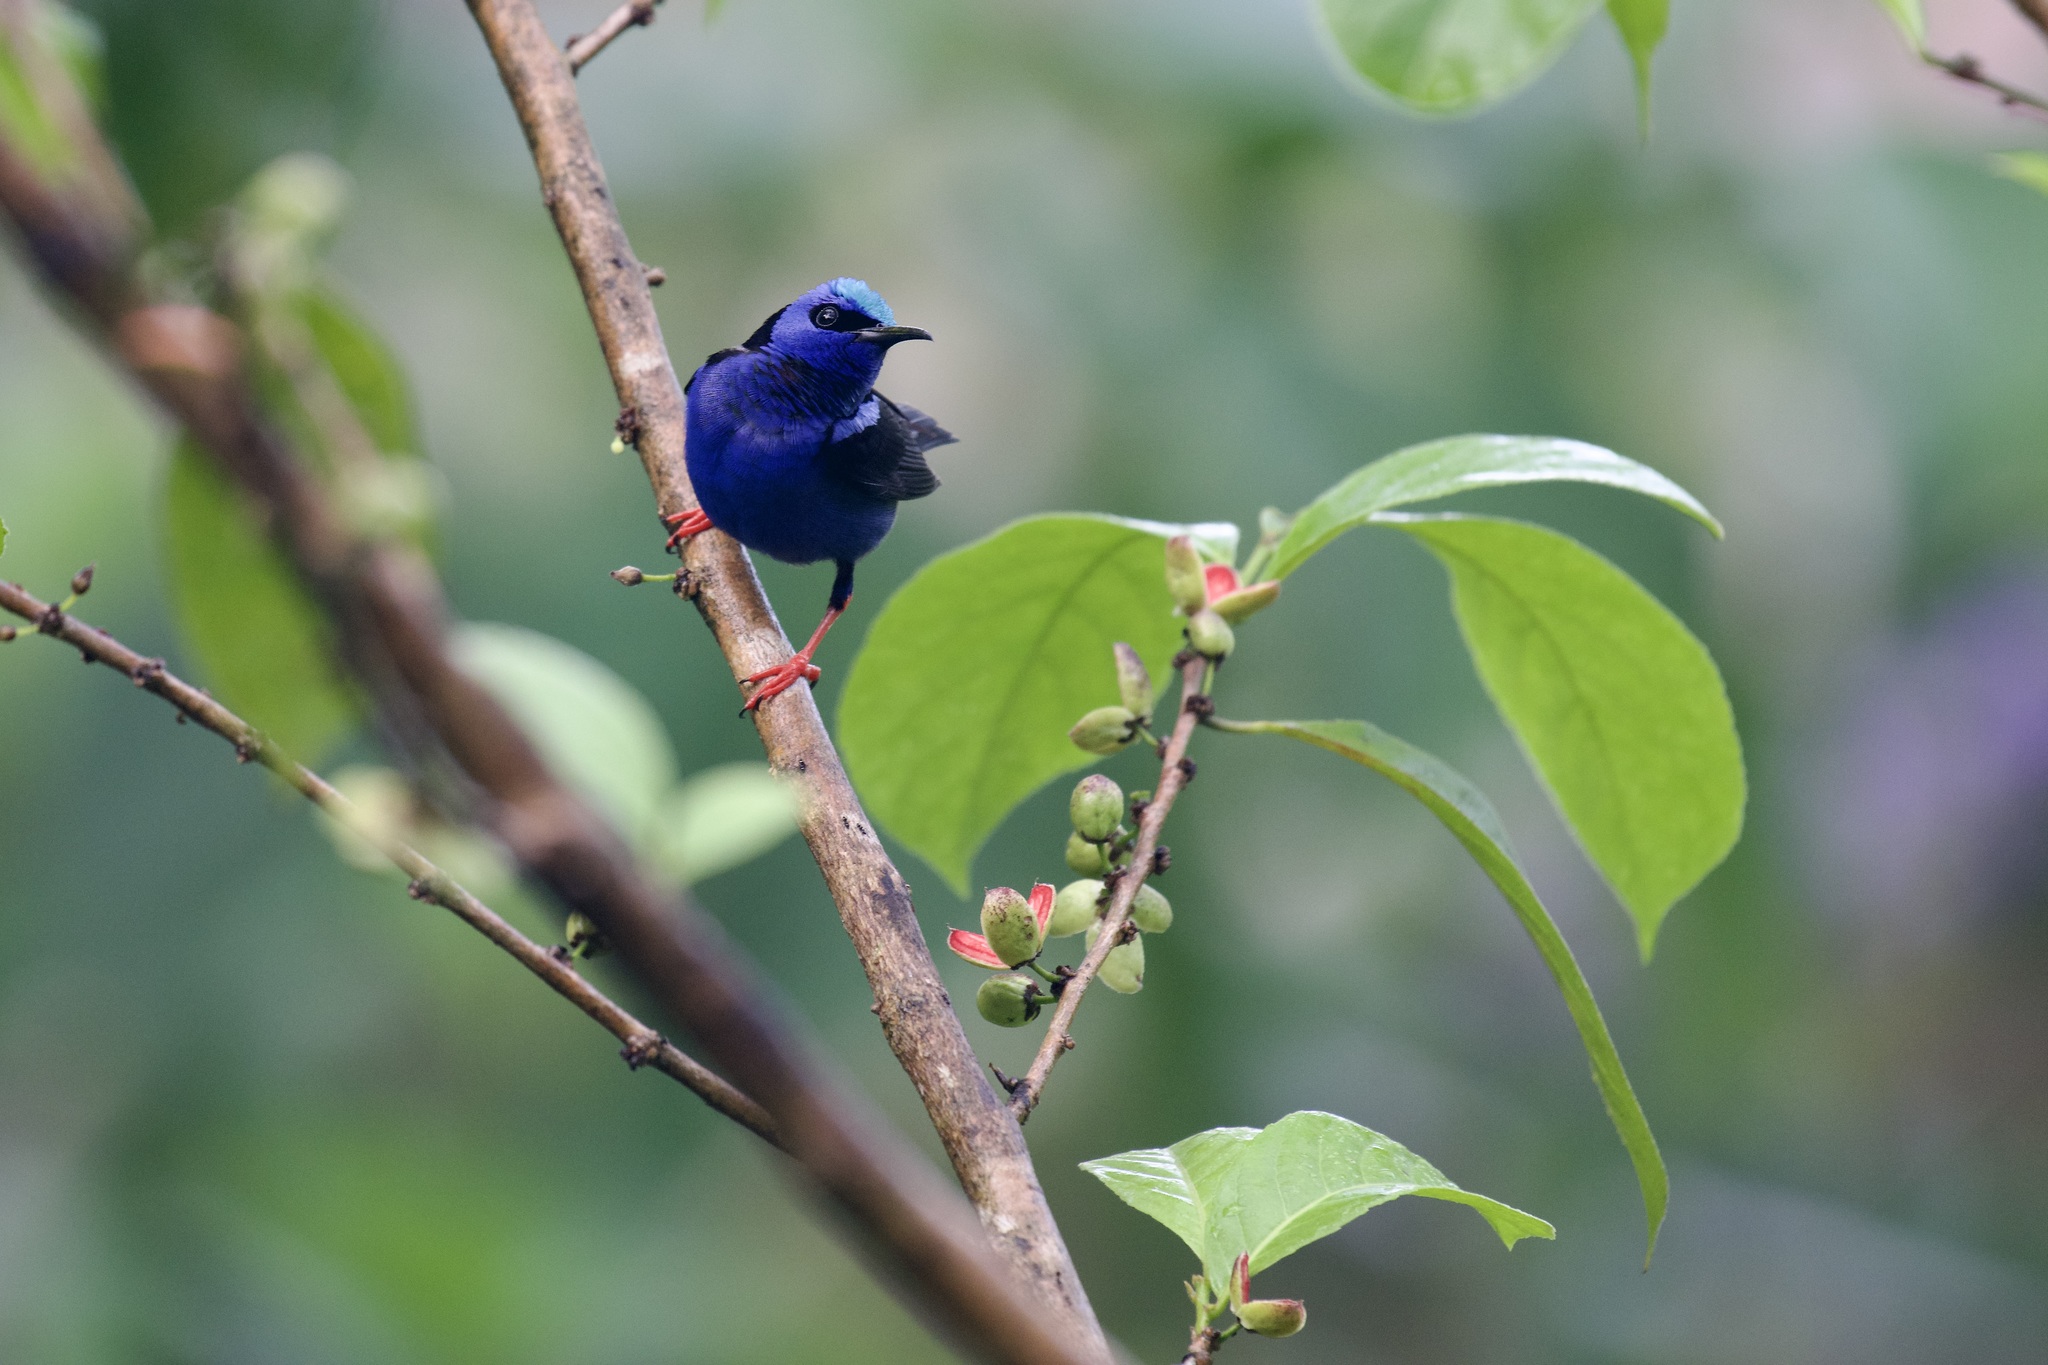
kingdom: Animalia
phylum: Chordata
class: Aves
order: Passeriformes
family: Thraupidae
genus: Cyanerpes
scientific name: Cyanerpes cyaneus
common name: Red-legged honeycreeper
